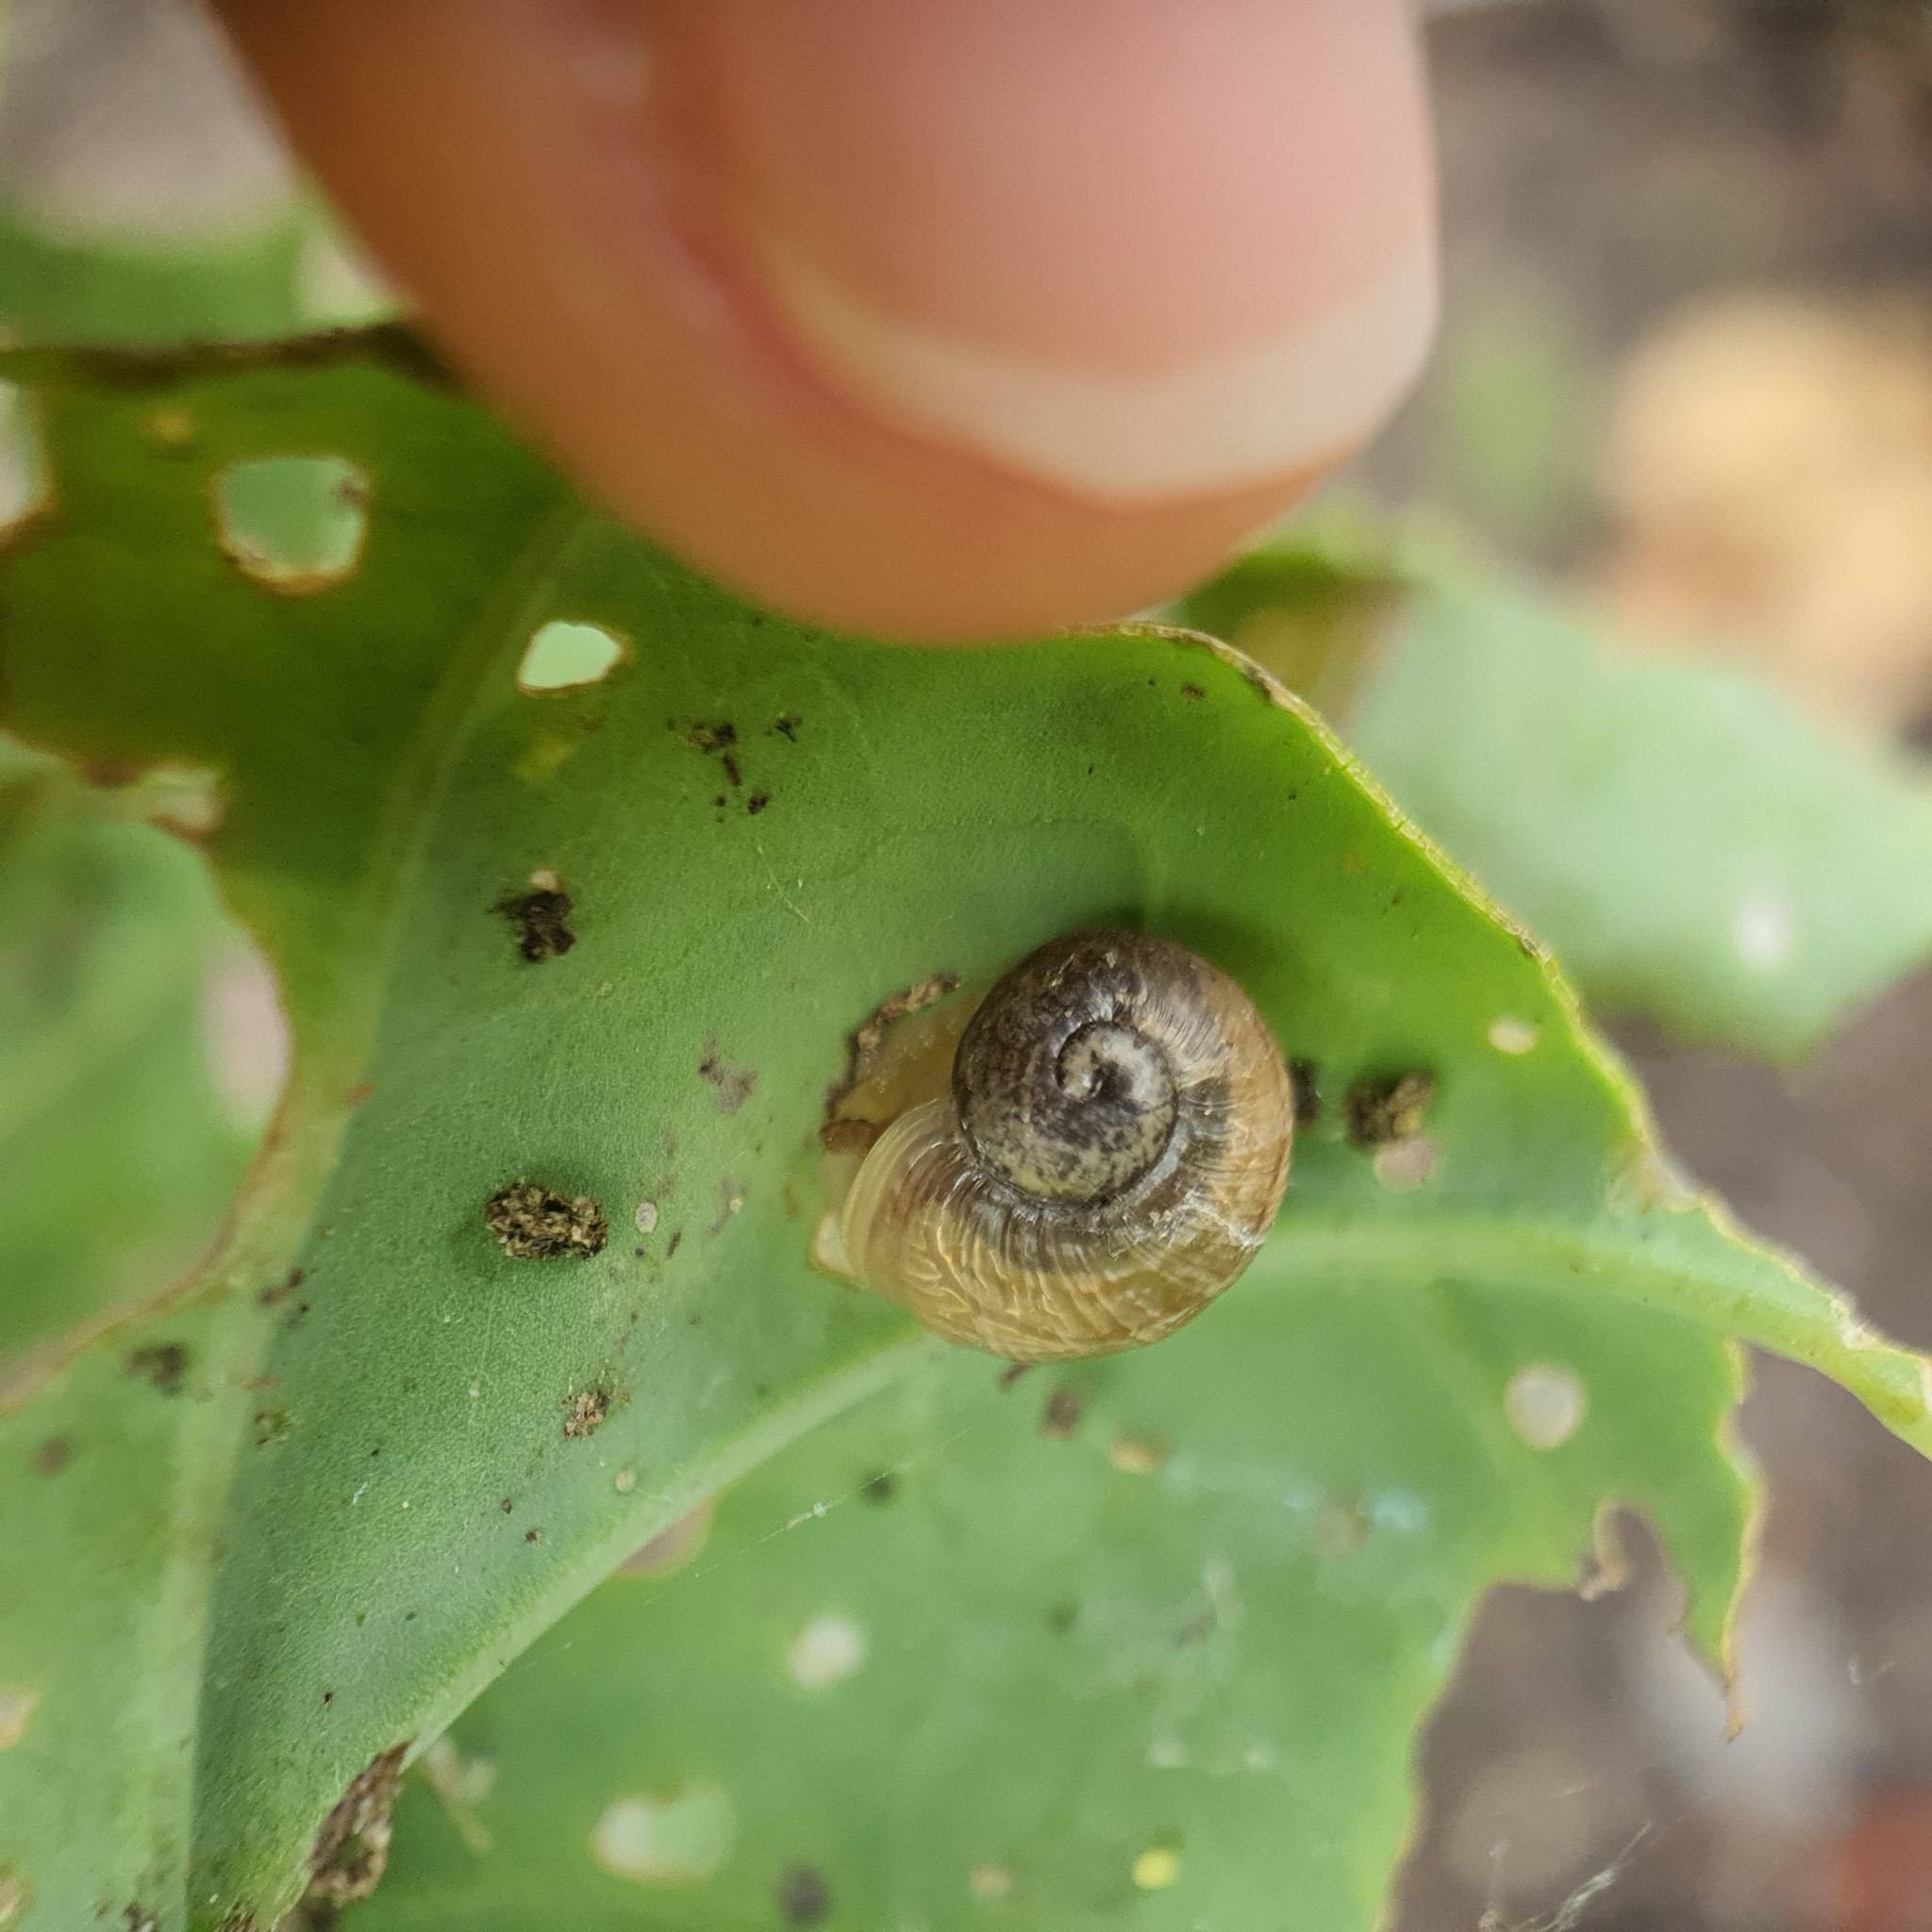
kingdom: Animalia
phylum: Mollusca
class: Gastropoda
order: Stylommatophora
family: Helicidae
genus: Cornu
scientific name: Cornu aspersum
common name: Brown garden snail
